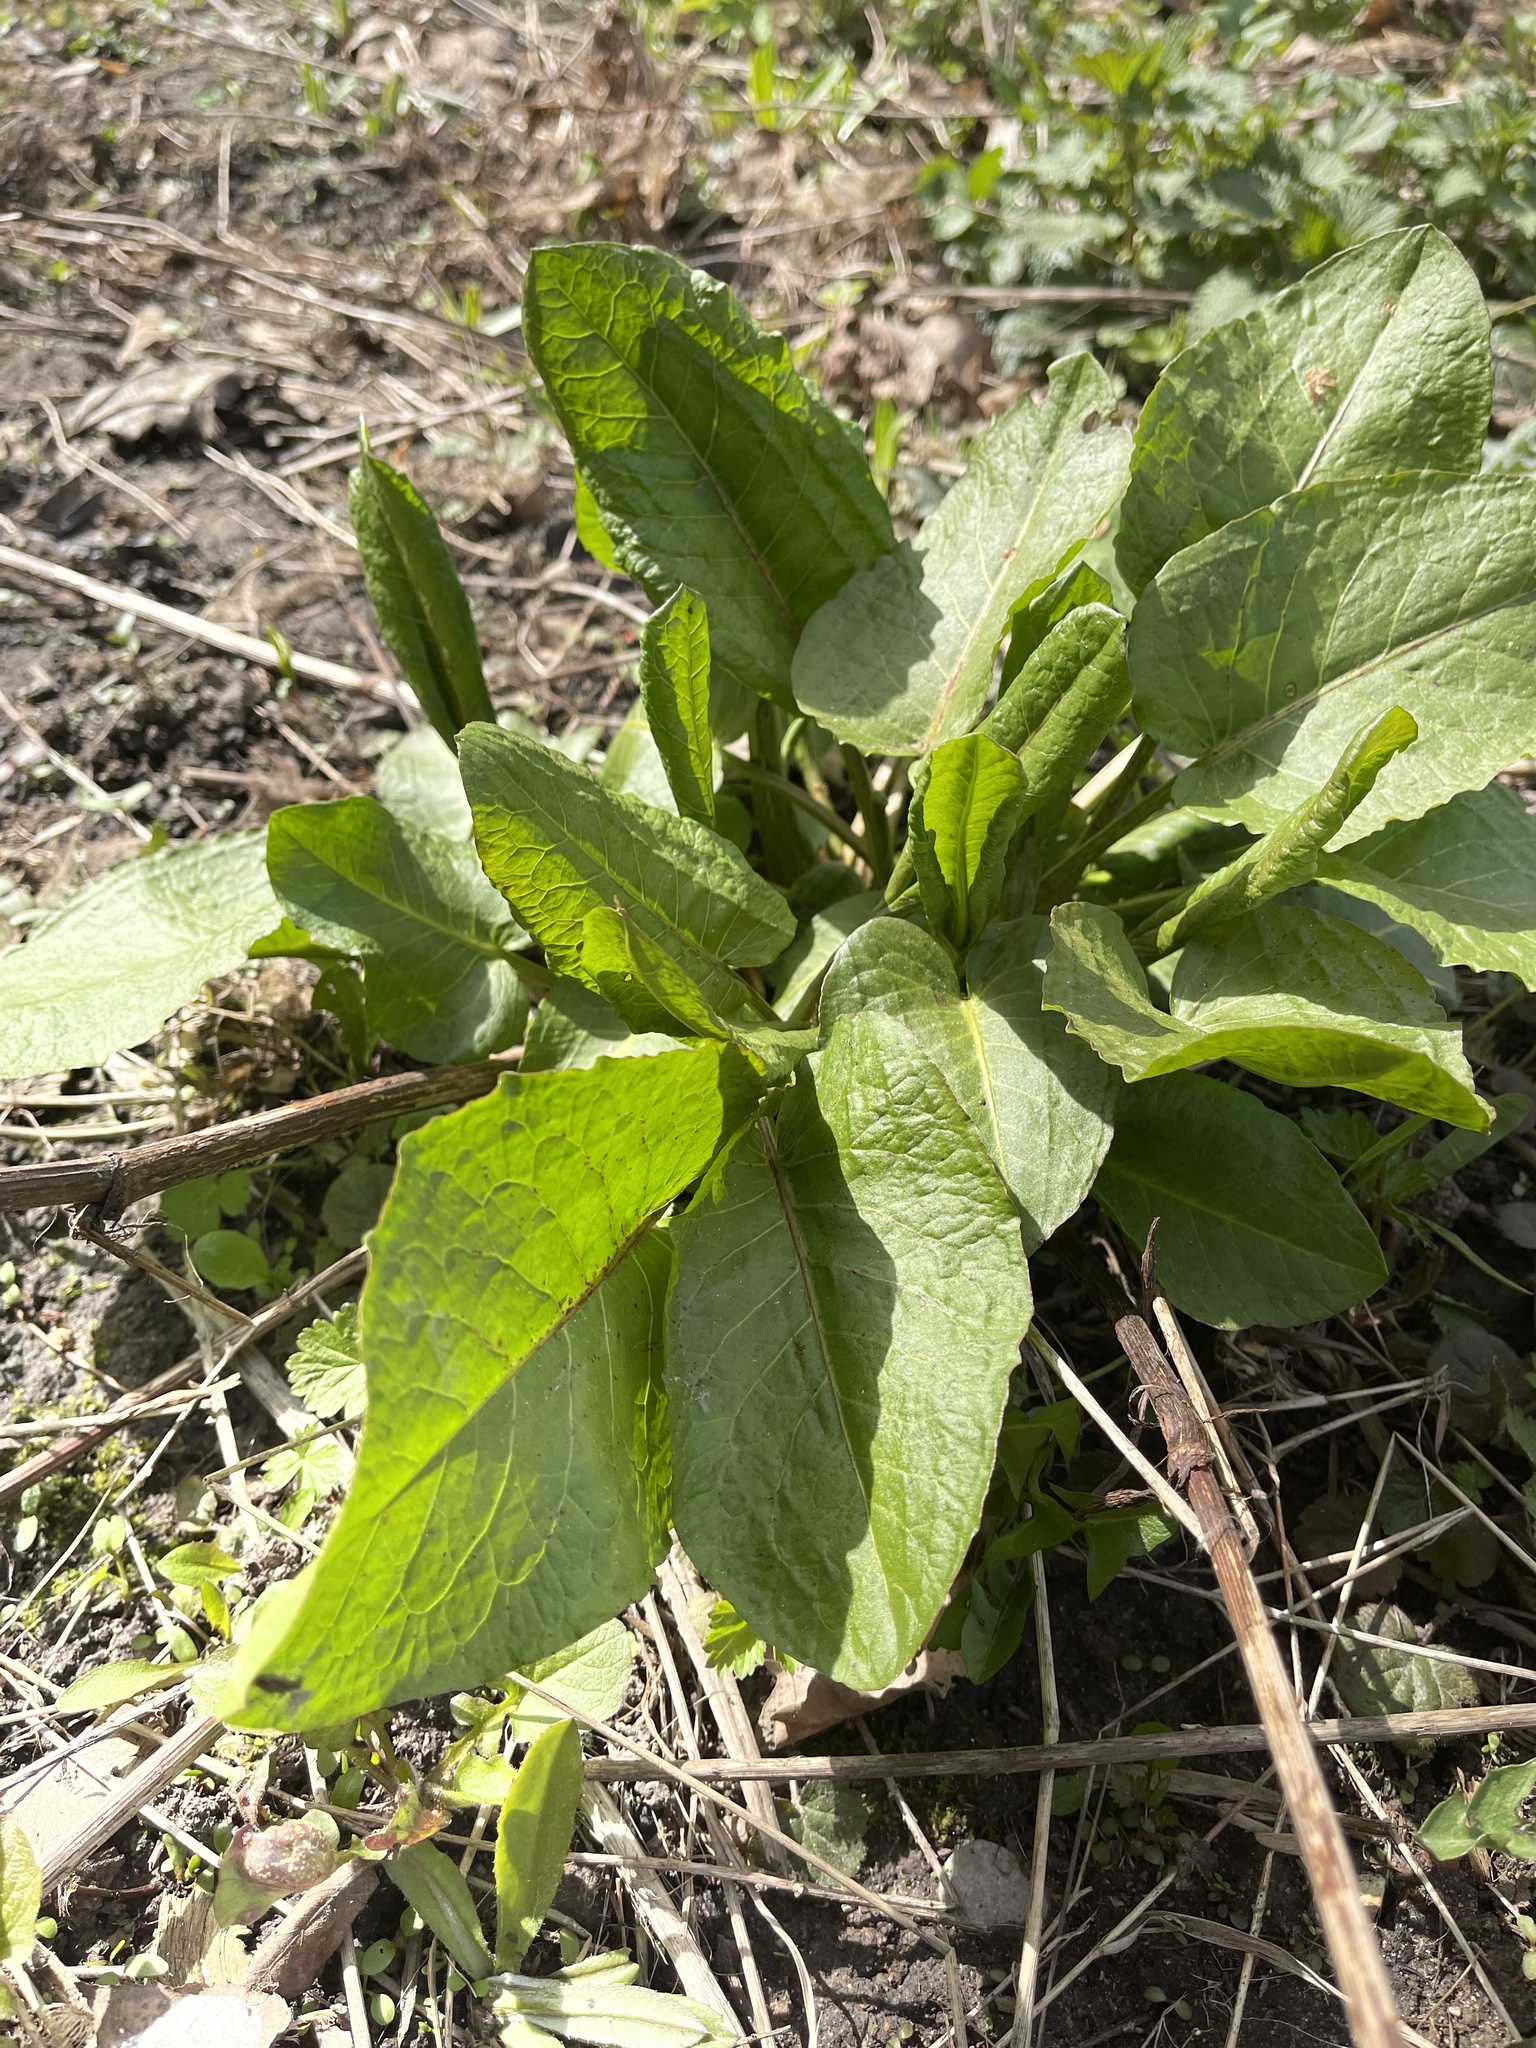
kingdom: Plantae
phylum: Tracheophyta
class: Magnoliopsida
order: Caryophyllales
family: Polygonaceae
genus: Rumex
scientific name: Rumex obtusifolius
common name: Bitter dock
